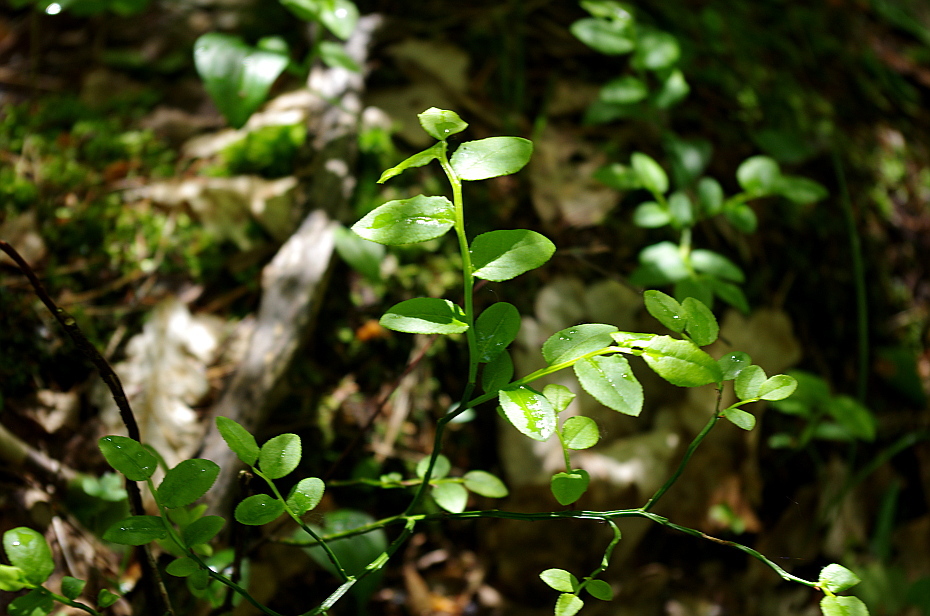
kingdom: Plantae
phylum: Tracheophyta
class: Magnoliopsida
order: Ericales
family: Ericaceae
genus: Vaccinium
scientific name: Vaccinium myrtillus
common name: Bilberry
